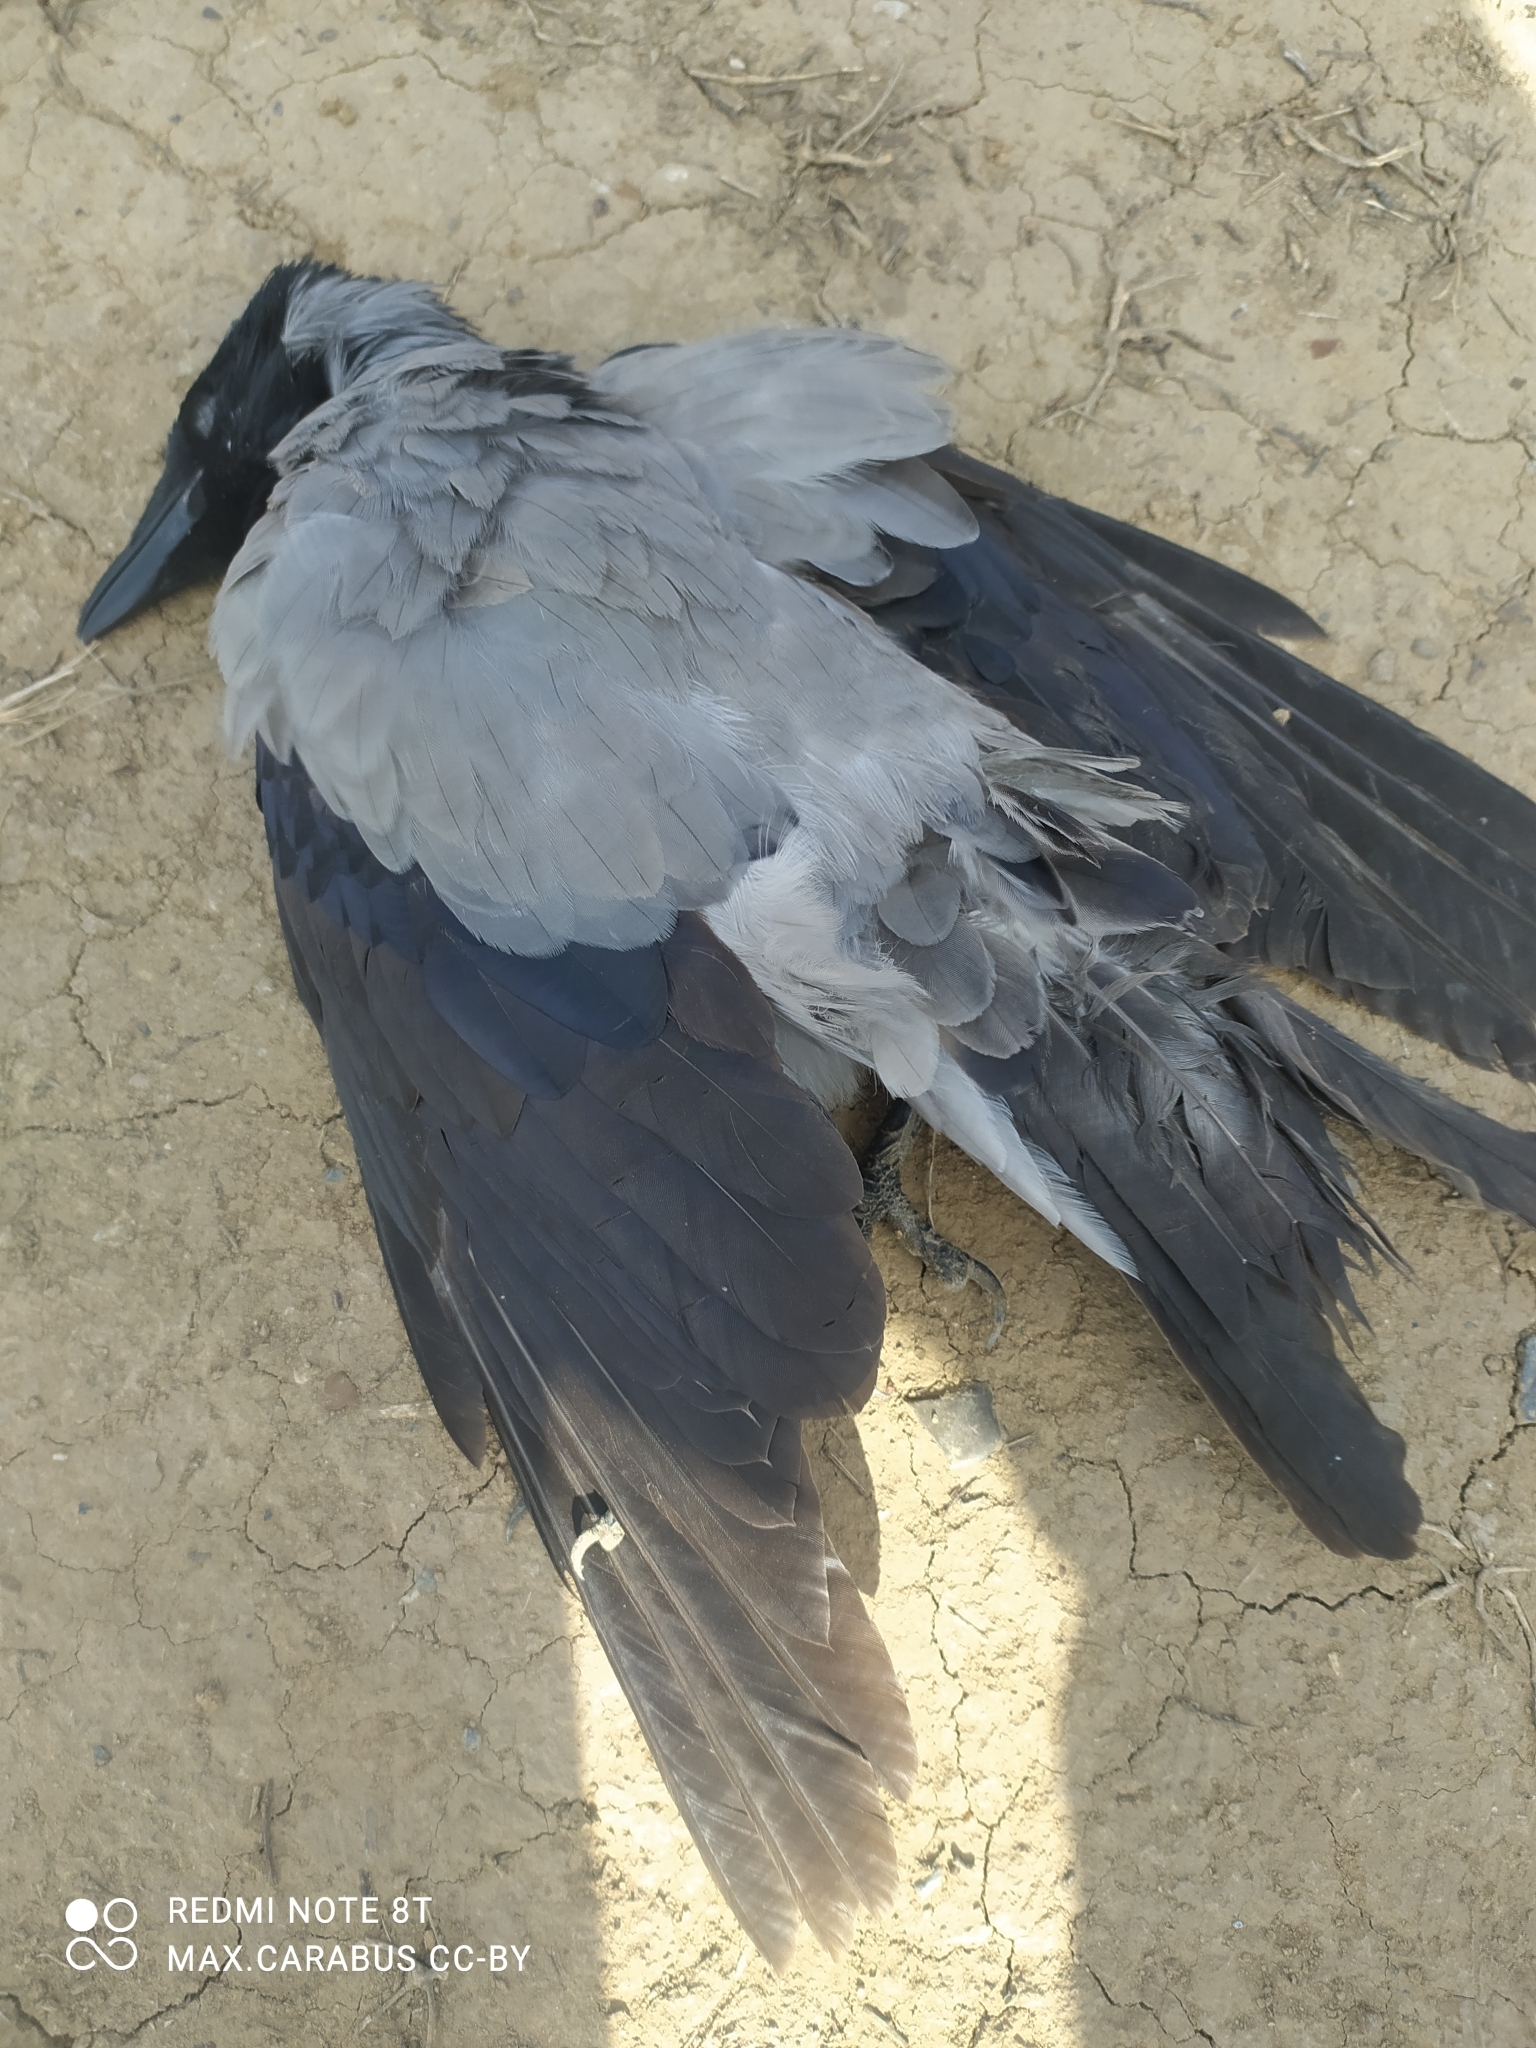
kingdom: Animalia
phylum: Chordata
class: Aves
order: Passeriformes
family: Corvidae
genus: Corvus
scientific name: Corvus cornix
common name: Hooded crow
